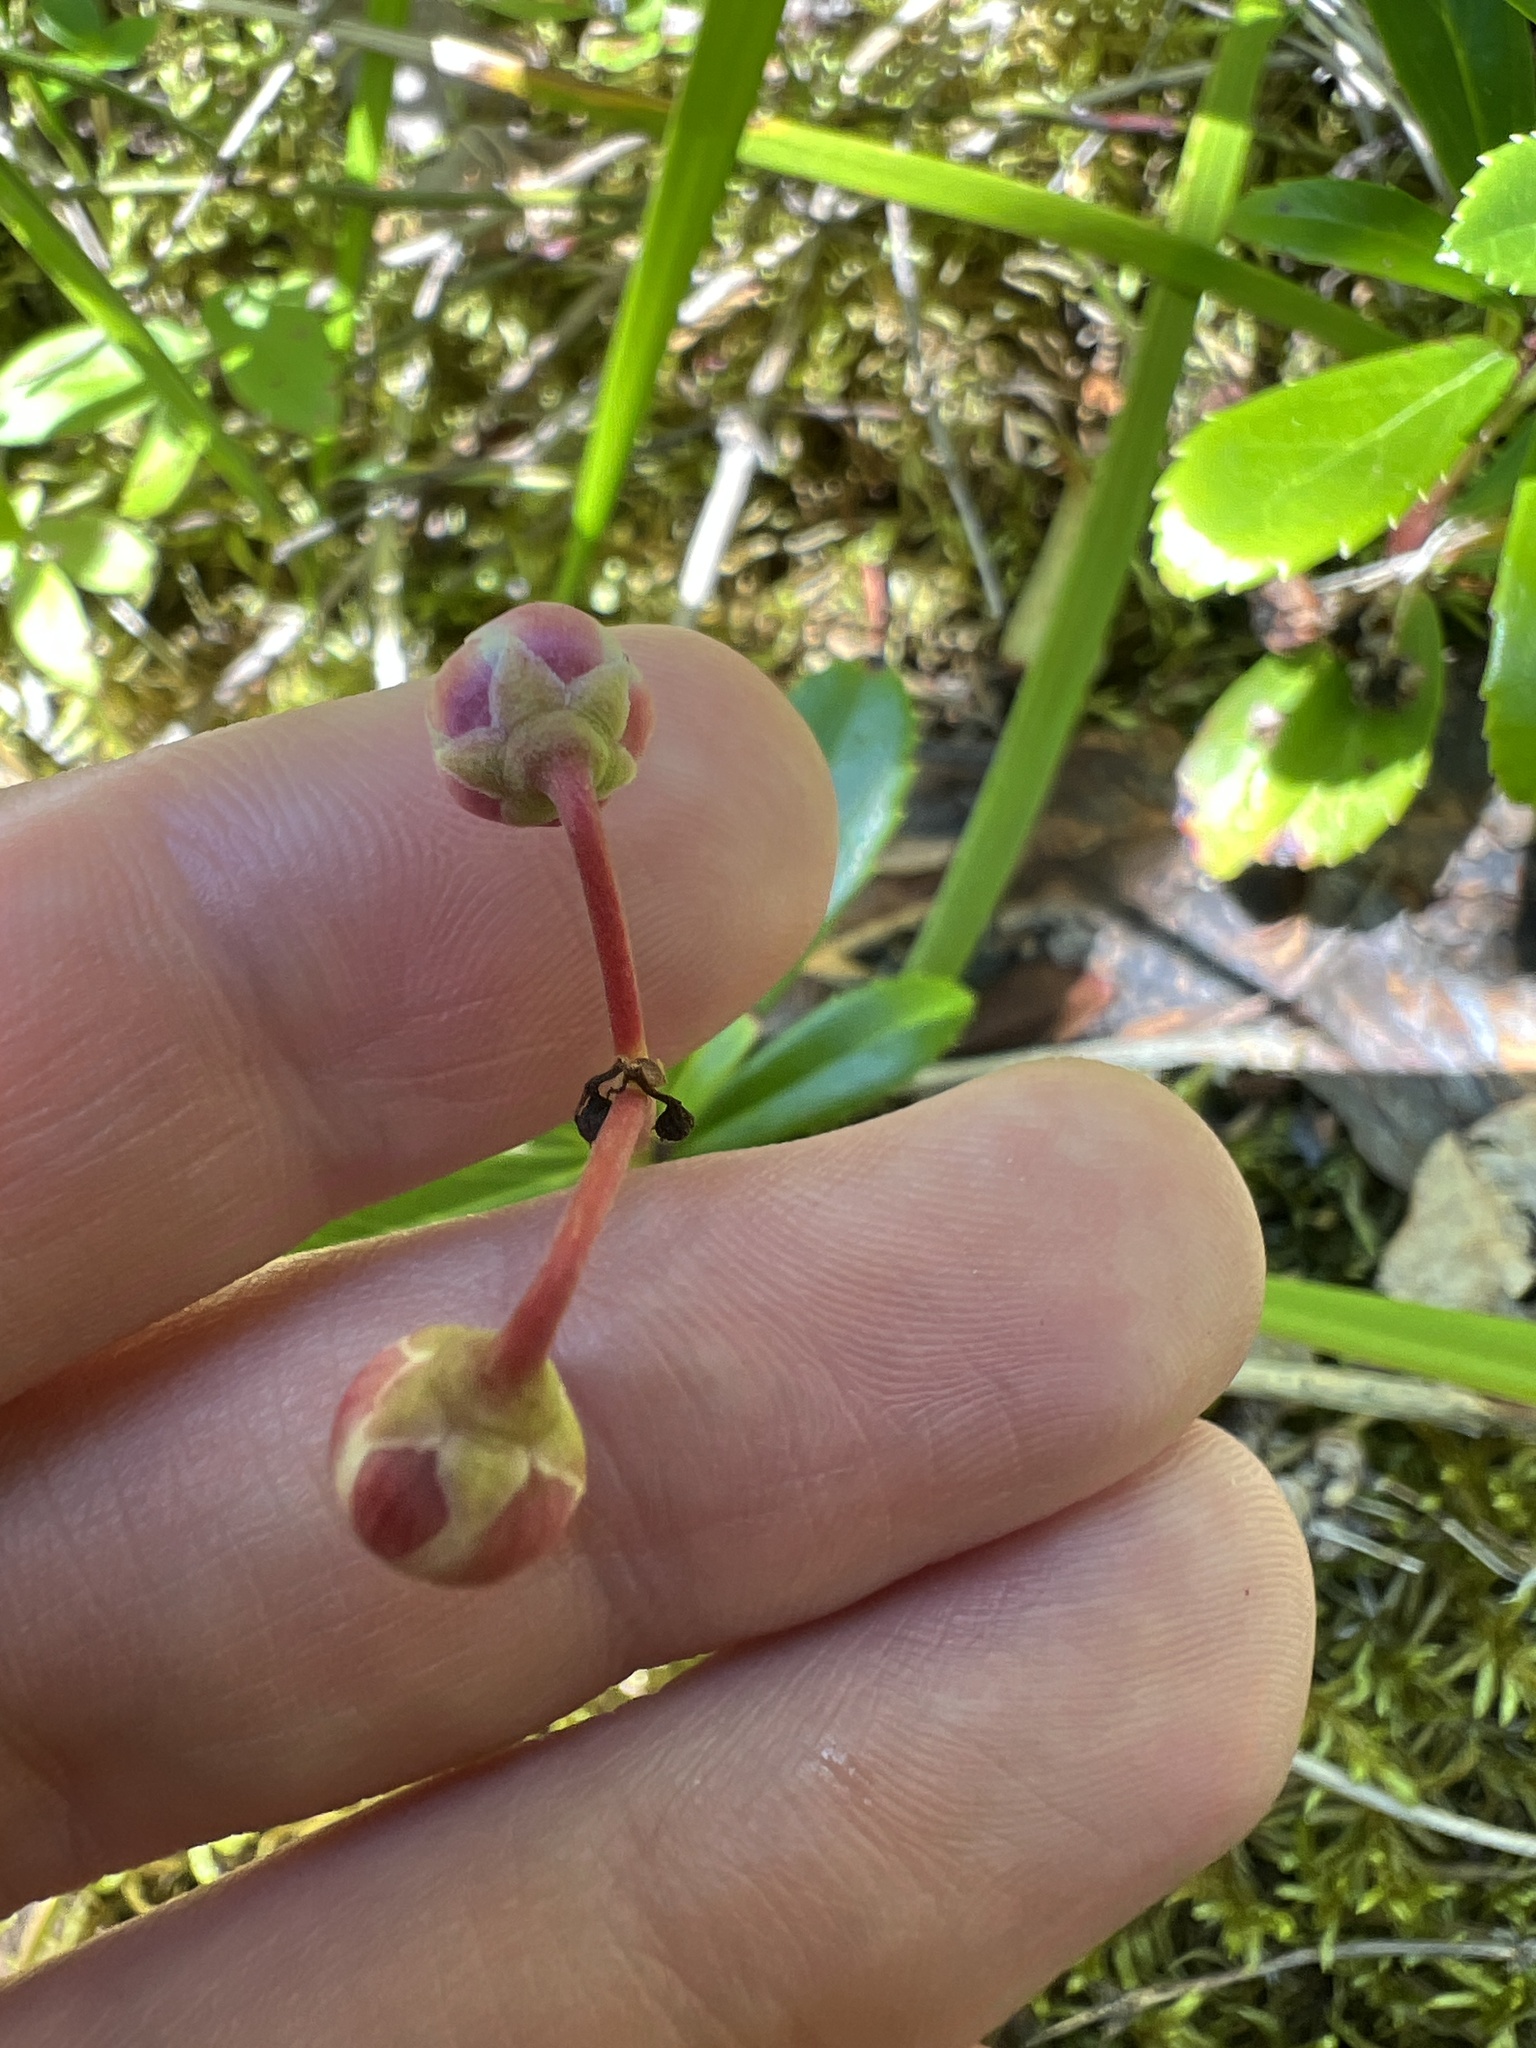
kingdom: Plantae
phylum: Tracheophyta
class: Magnoliopsida
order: Ericales
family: Ericaceae
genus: Chimaphila
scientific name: Chimaphila umbellata
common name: Pipsissewa
